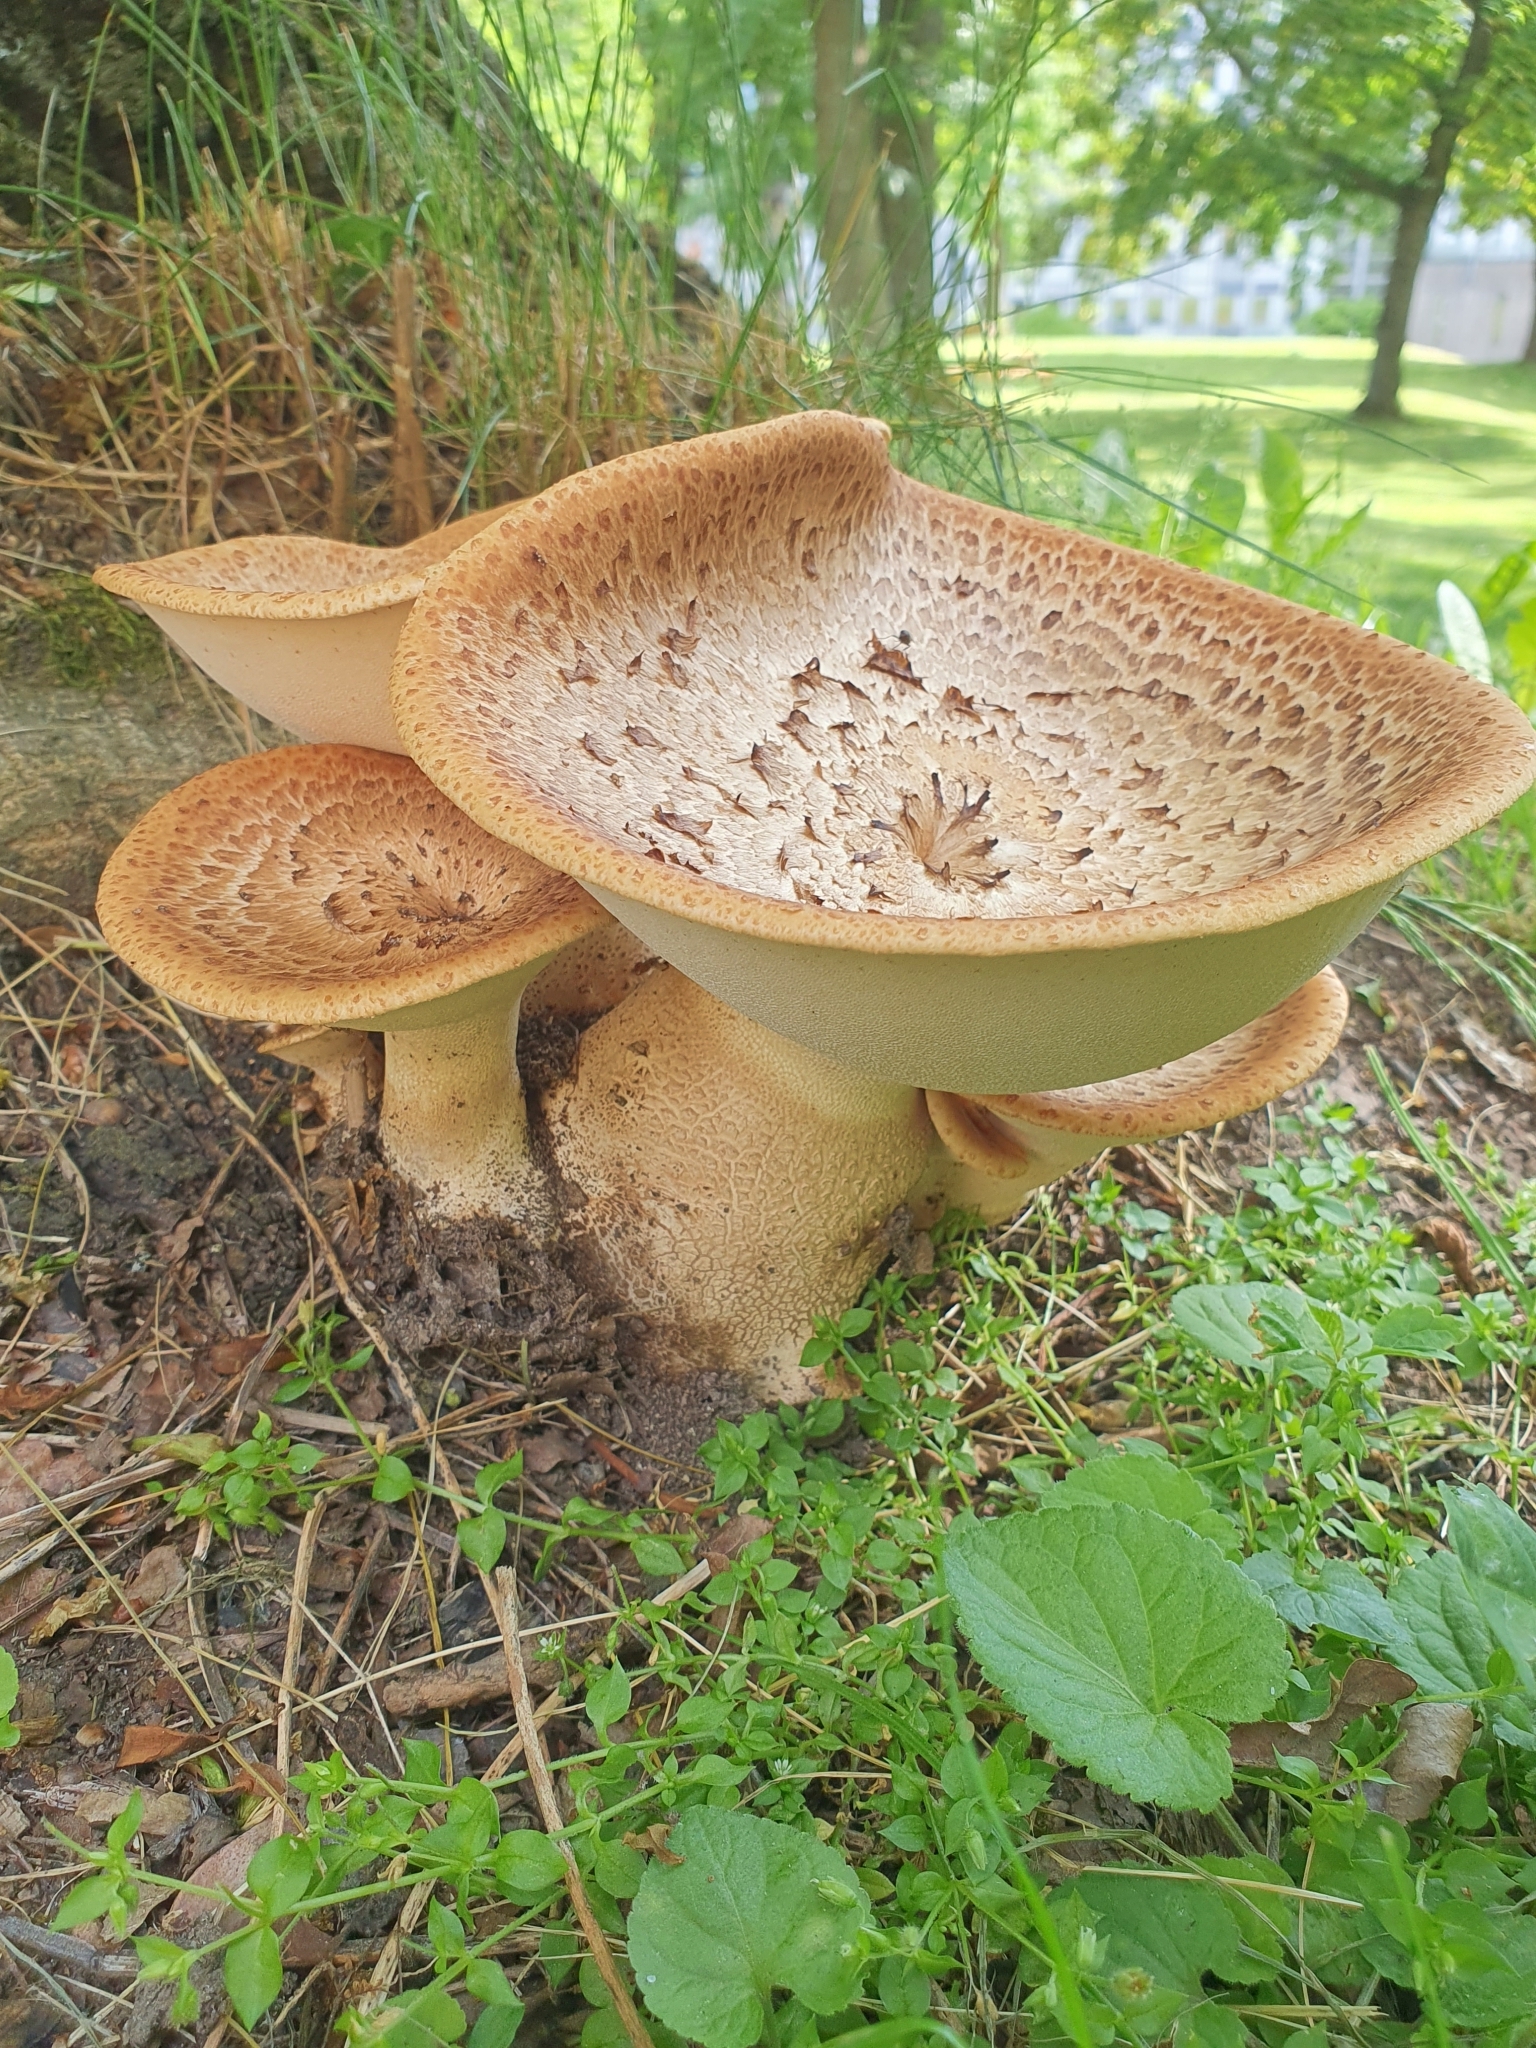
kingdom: Fungi
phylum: Basidiomycota
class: Agaricomycetes
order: Polyporales
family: Polyporaceae
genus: Cerioporus
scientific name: Cerioporus squamosus
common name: Dryad's saddle
